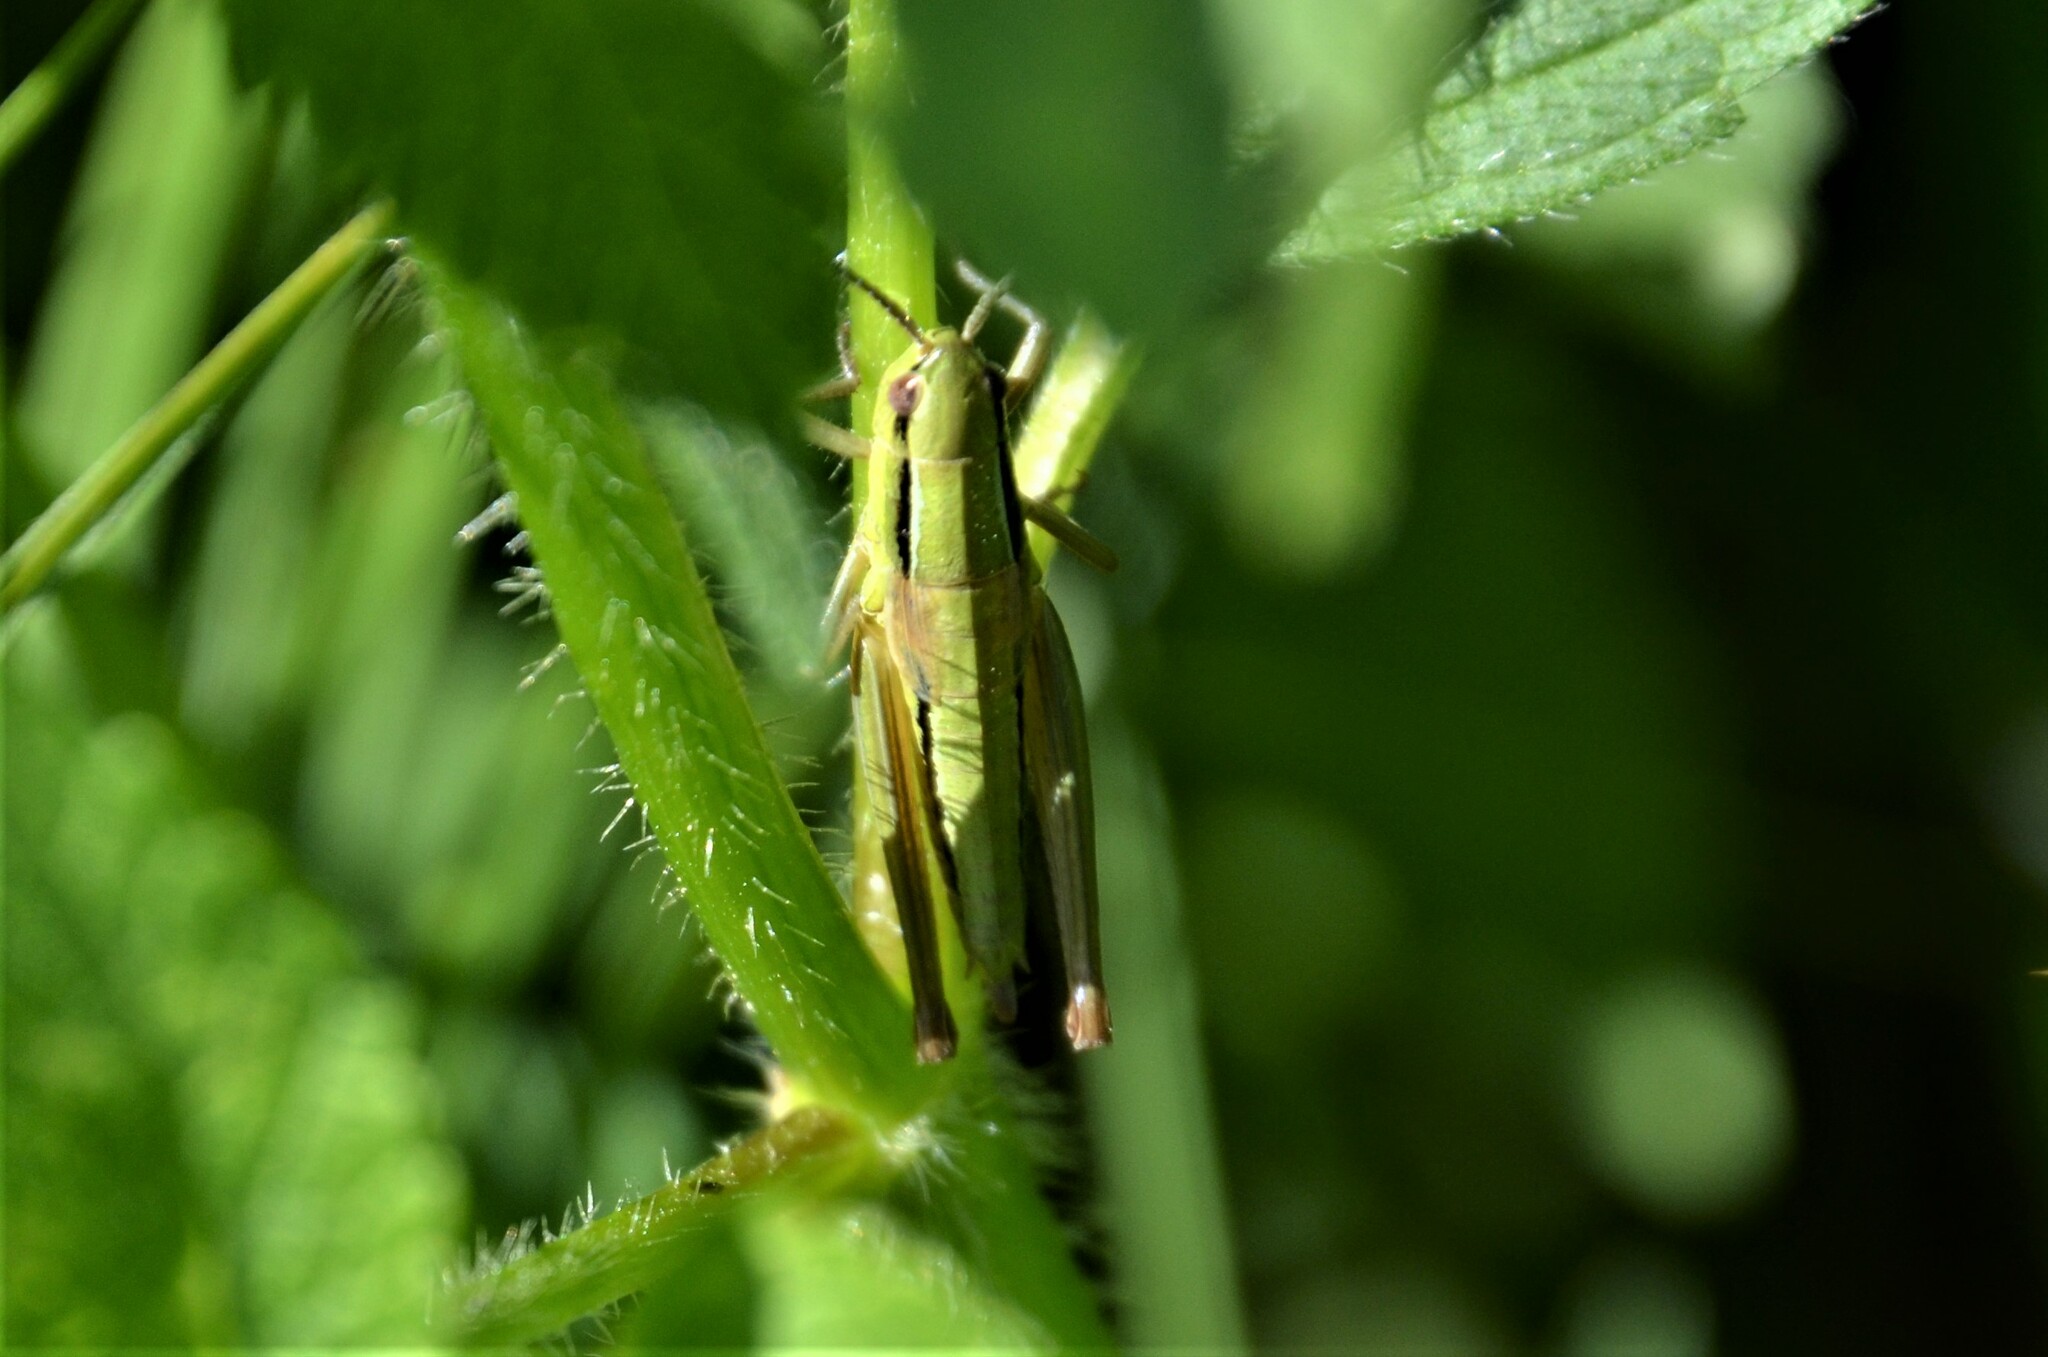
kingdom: Animalia
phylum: Arthropoda
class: Insecta
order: Orthoptera
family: Acrididae
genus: Euthystira
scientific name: Euthystira brachyptera
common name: Small gold grasshopper
